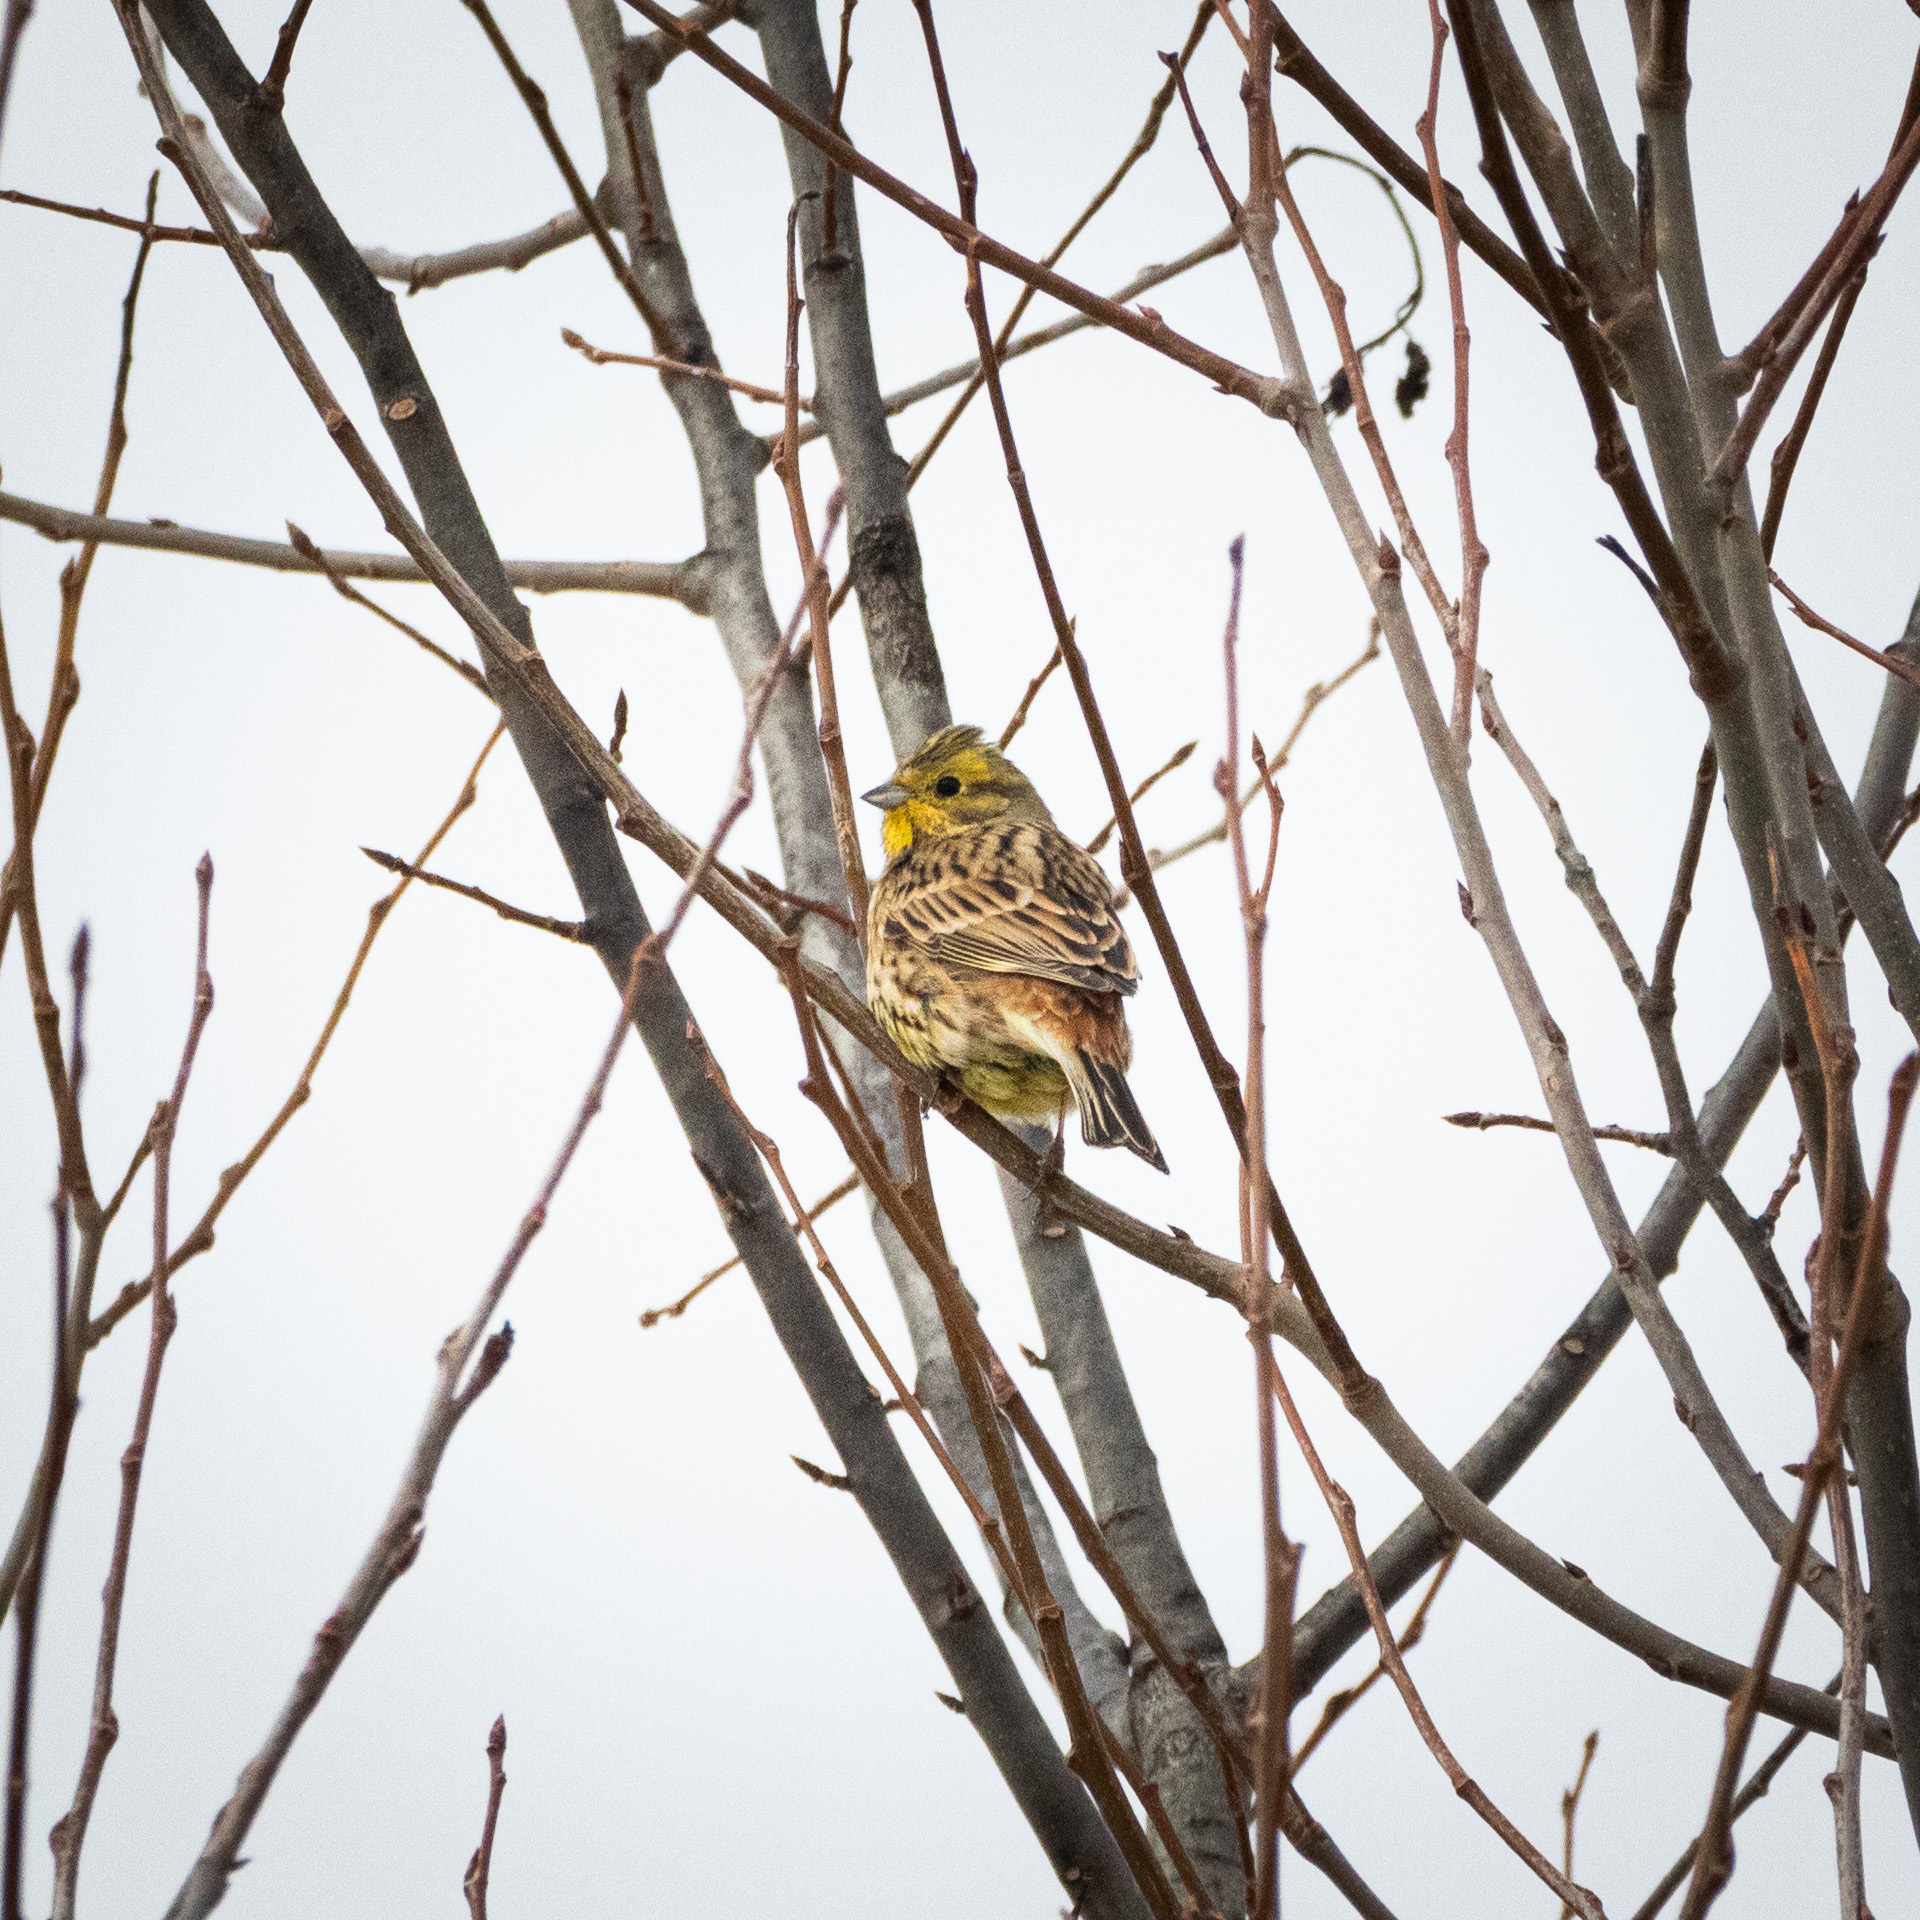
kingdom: Animalia
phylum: Chordata
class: Aves
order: Passeriformes
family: Emberizidae
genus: Emberiza
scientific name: Emberiza citrinella
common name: Yellowhammer
